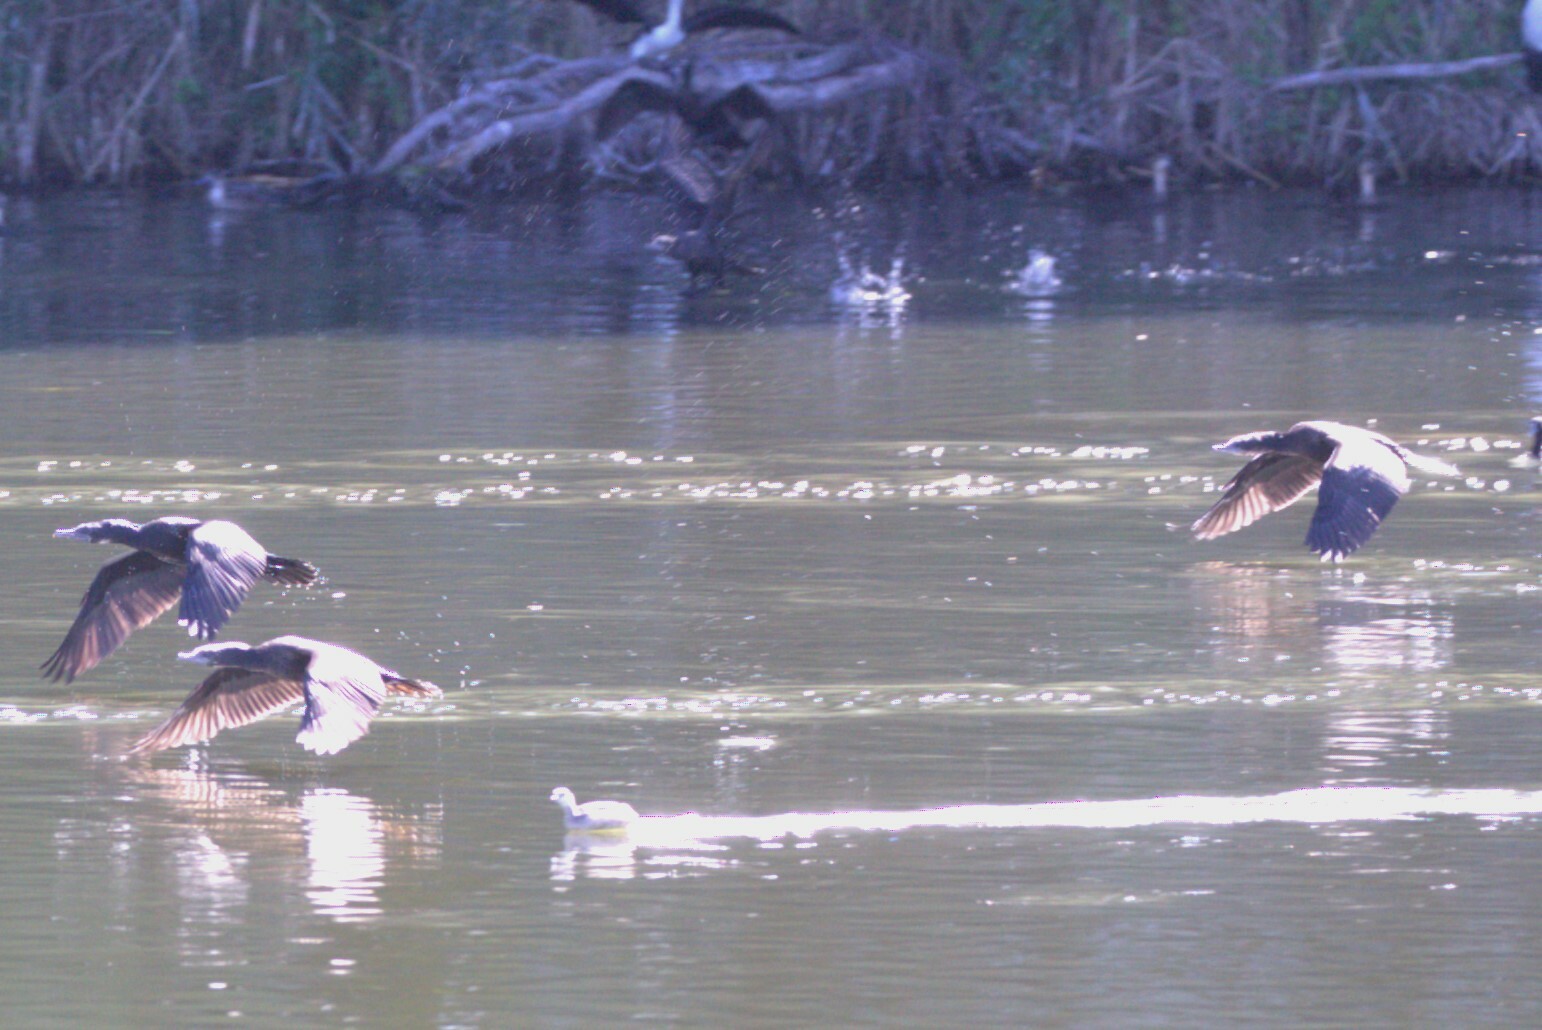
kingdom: Animalia
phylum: Chordata
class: Aves
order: Suliformes
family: Phalacrocoracidae
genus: Phalacrocorax
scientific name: Phalacrocorax sulcirostris
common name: Little black cormorant
